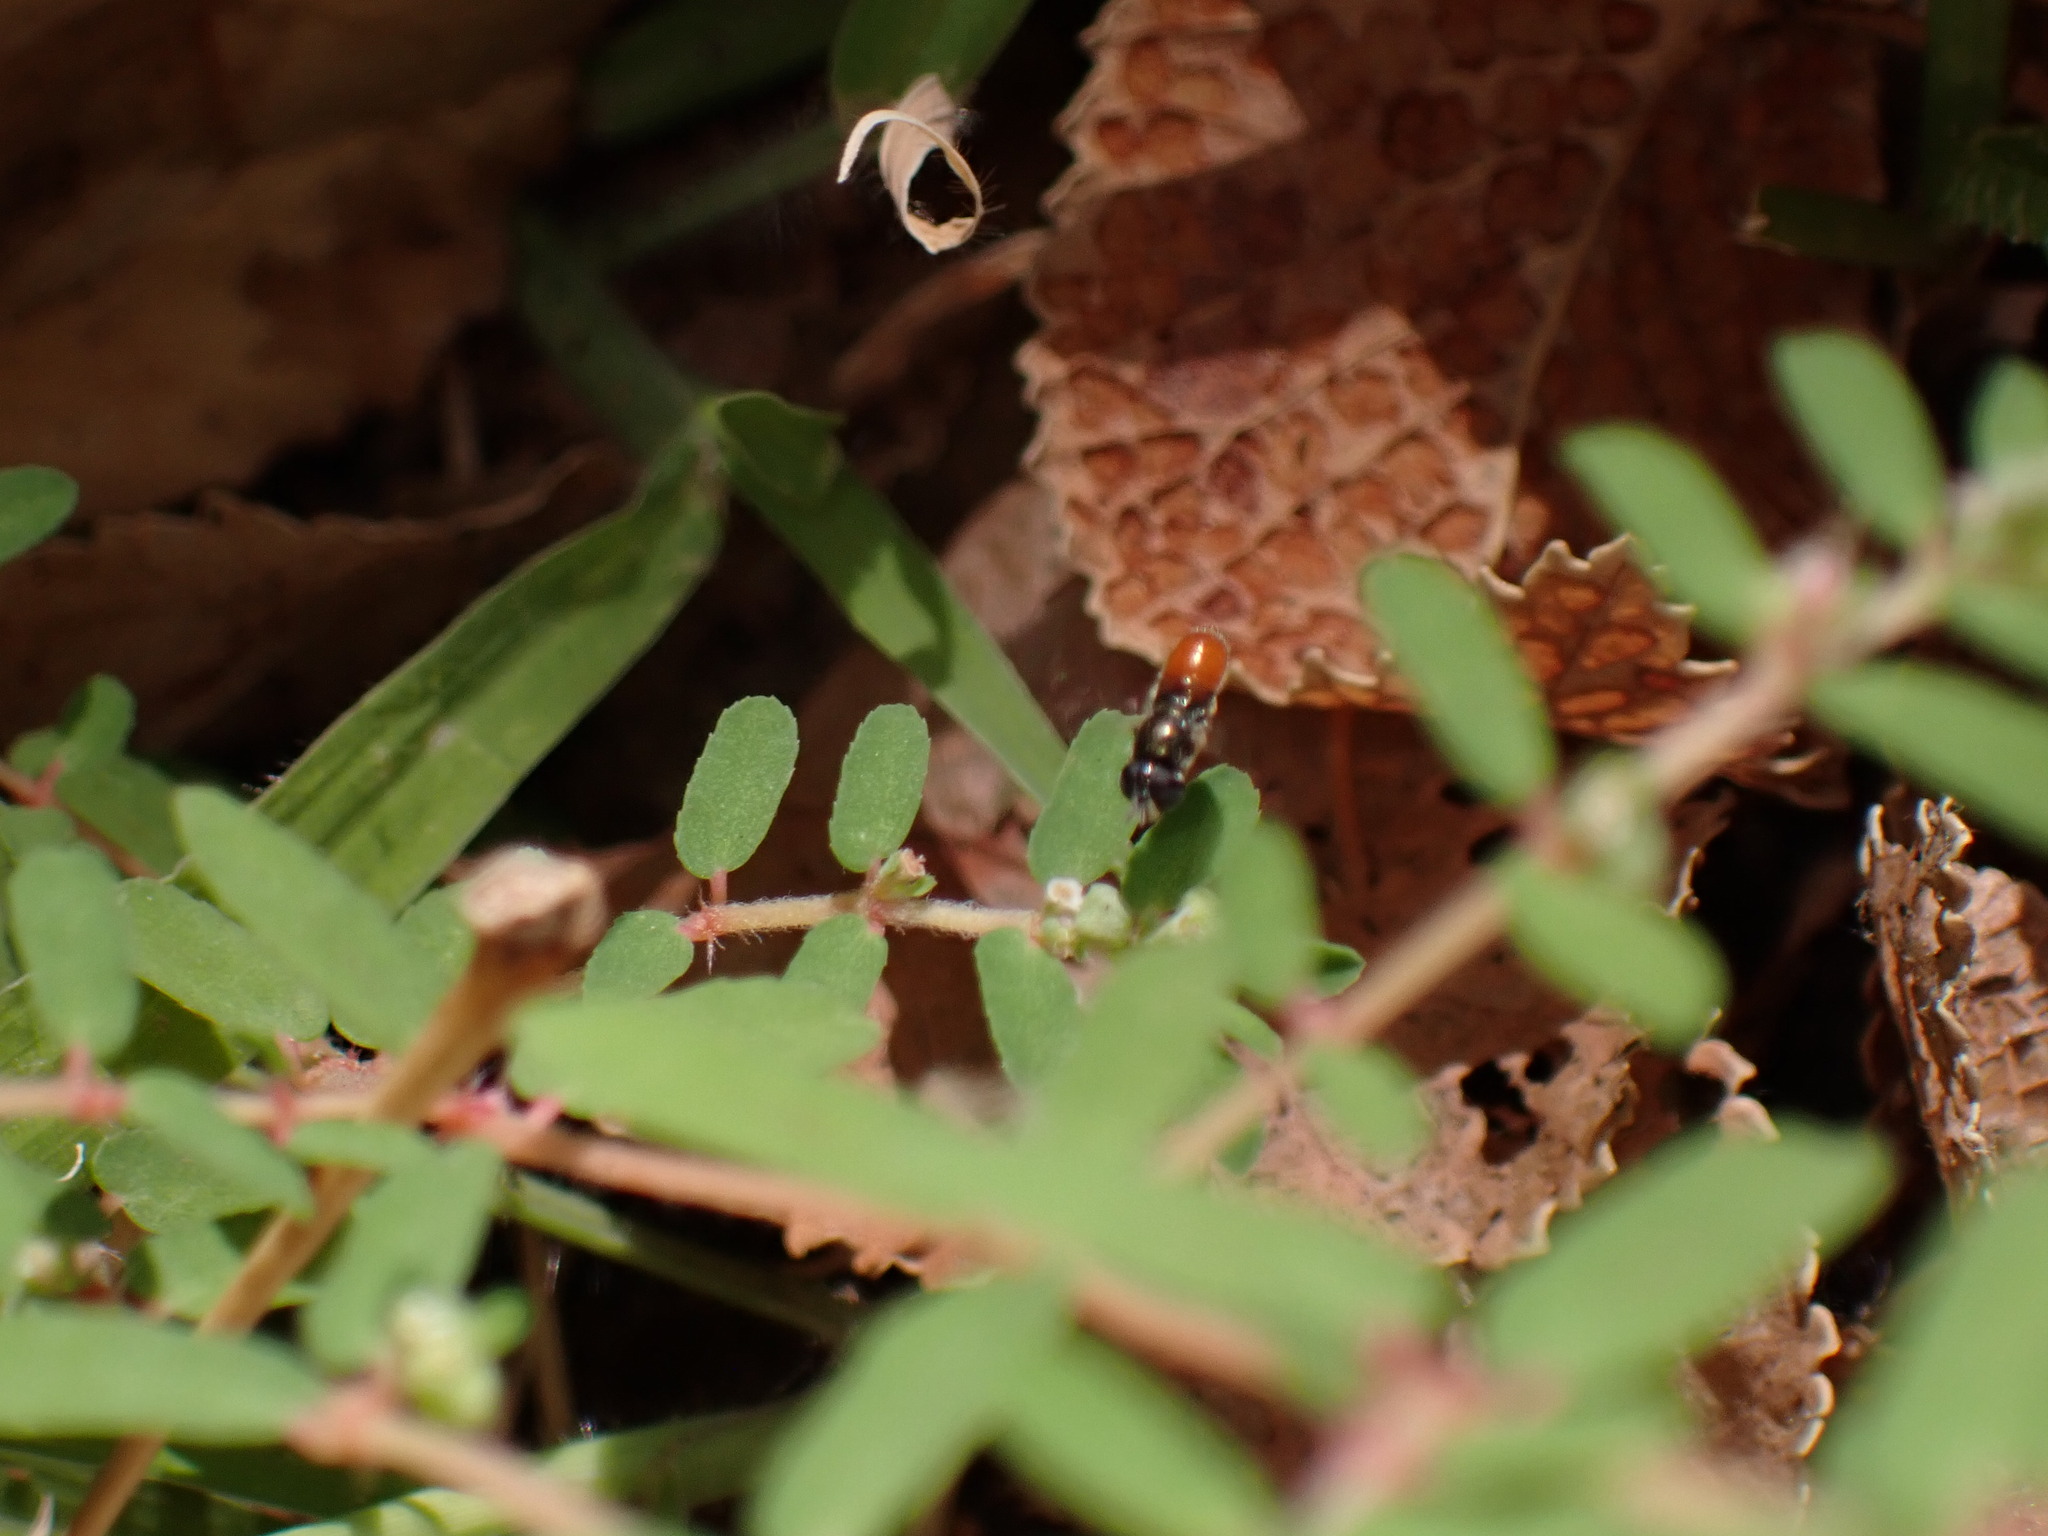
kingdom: Animalia
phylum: Arthropoda
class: Insecta
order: Diptera
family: Syrphidae
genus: Paragus
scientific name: Paragus haemorrhous
